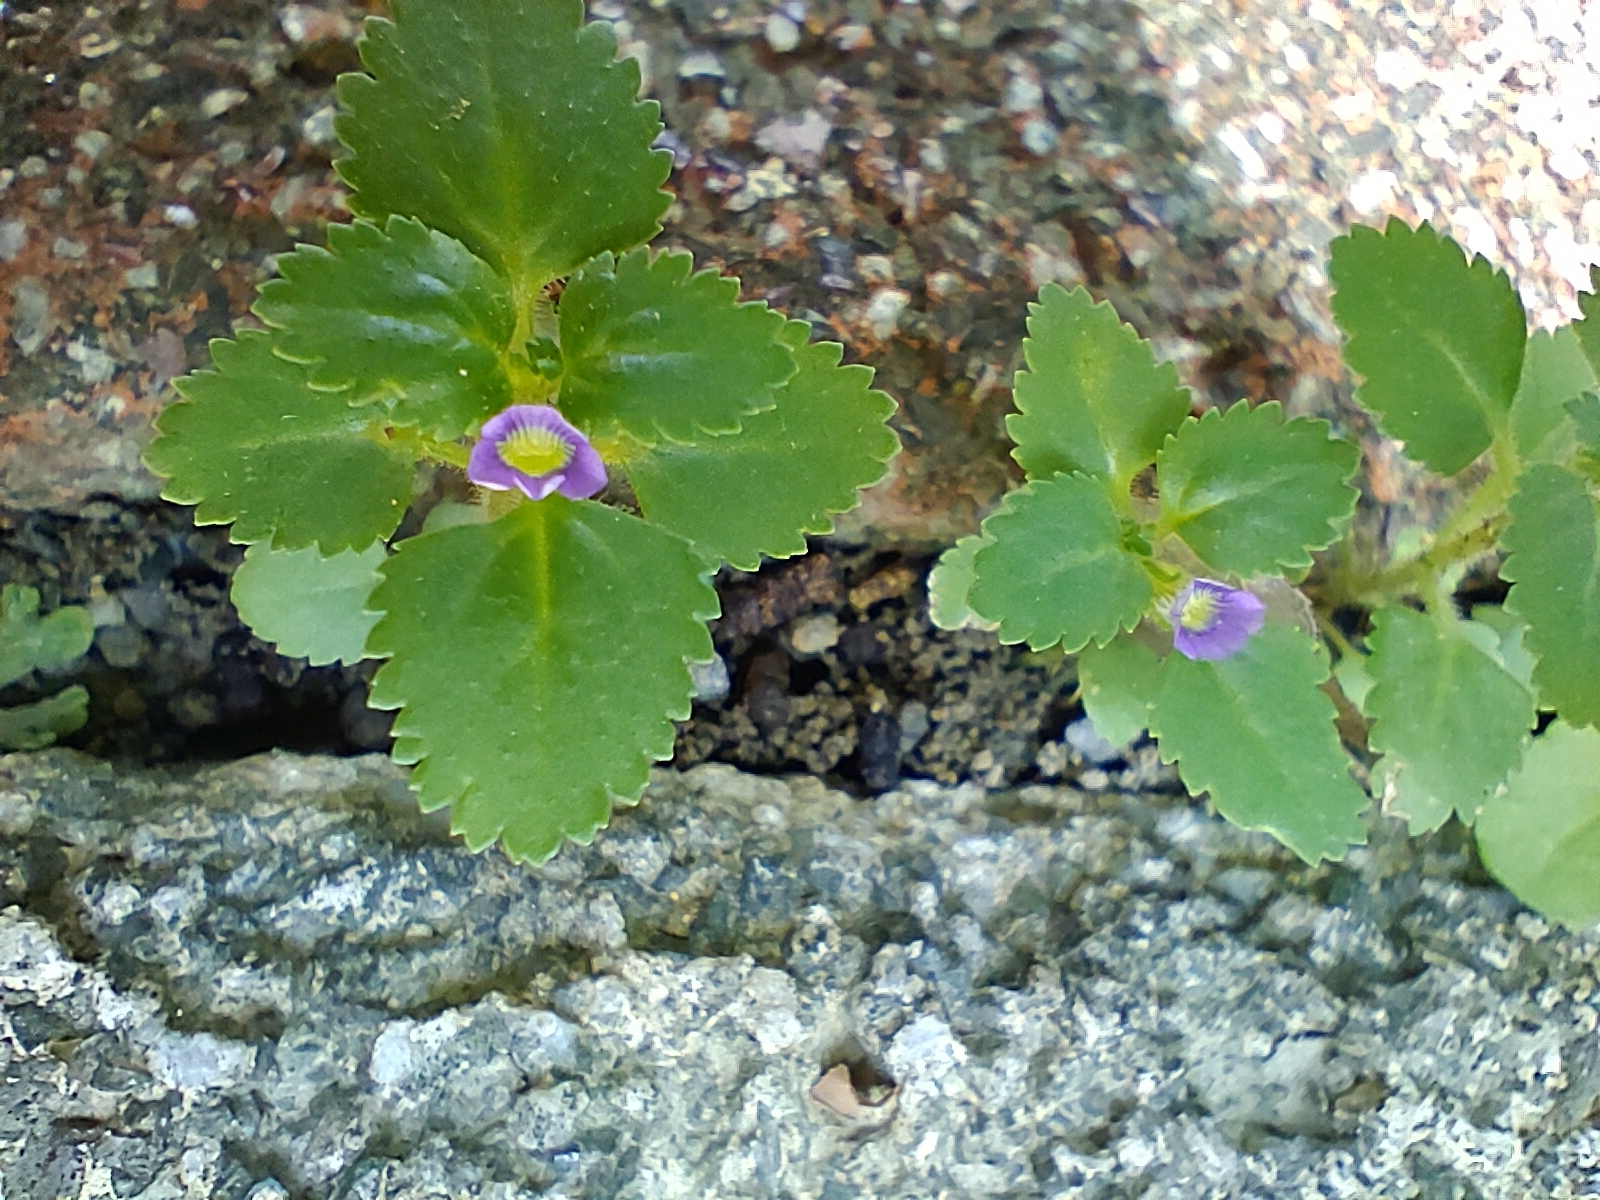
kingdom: Plantae
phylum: Tracheophyta
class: Magnoliopsida
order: Lamiales
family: Plantaginaceae
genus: Stemodia
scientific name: Stemodia verticillata
